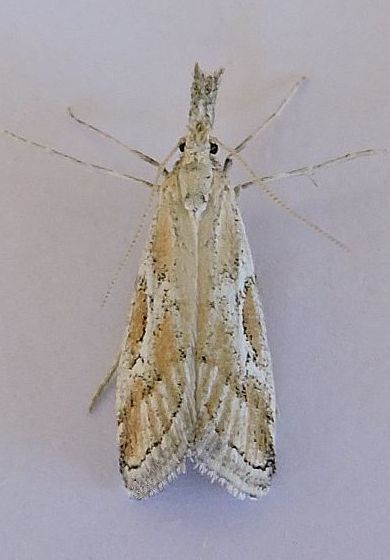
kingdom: Animalia
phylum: Arthropoda
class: Insecta
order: Lepidoptera
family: Pyralidae
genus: Cacotherapia
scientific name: Cacotherapia interalbicalis
